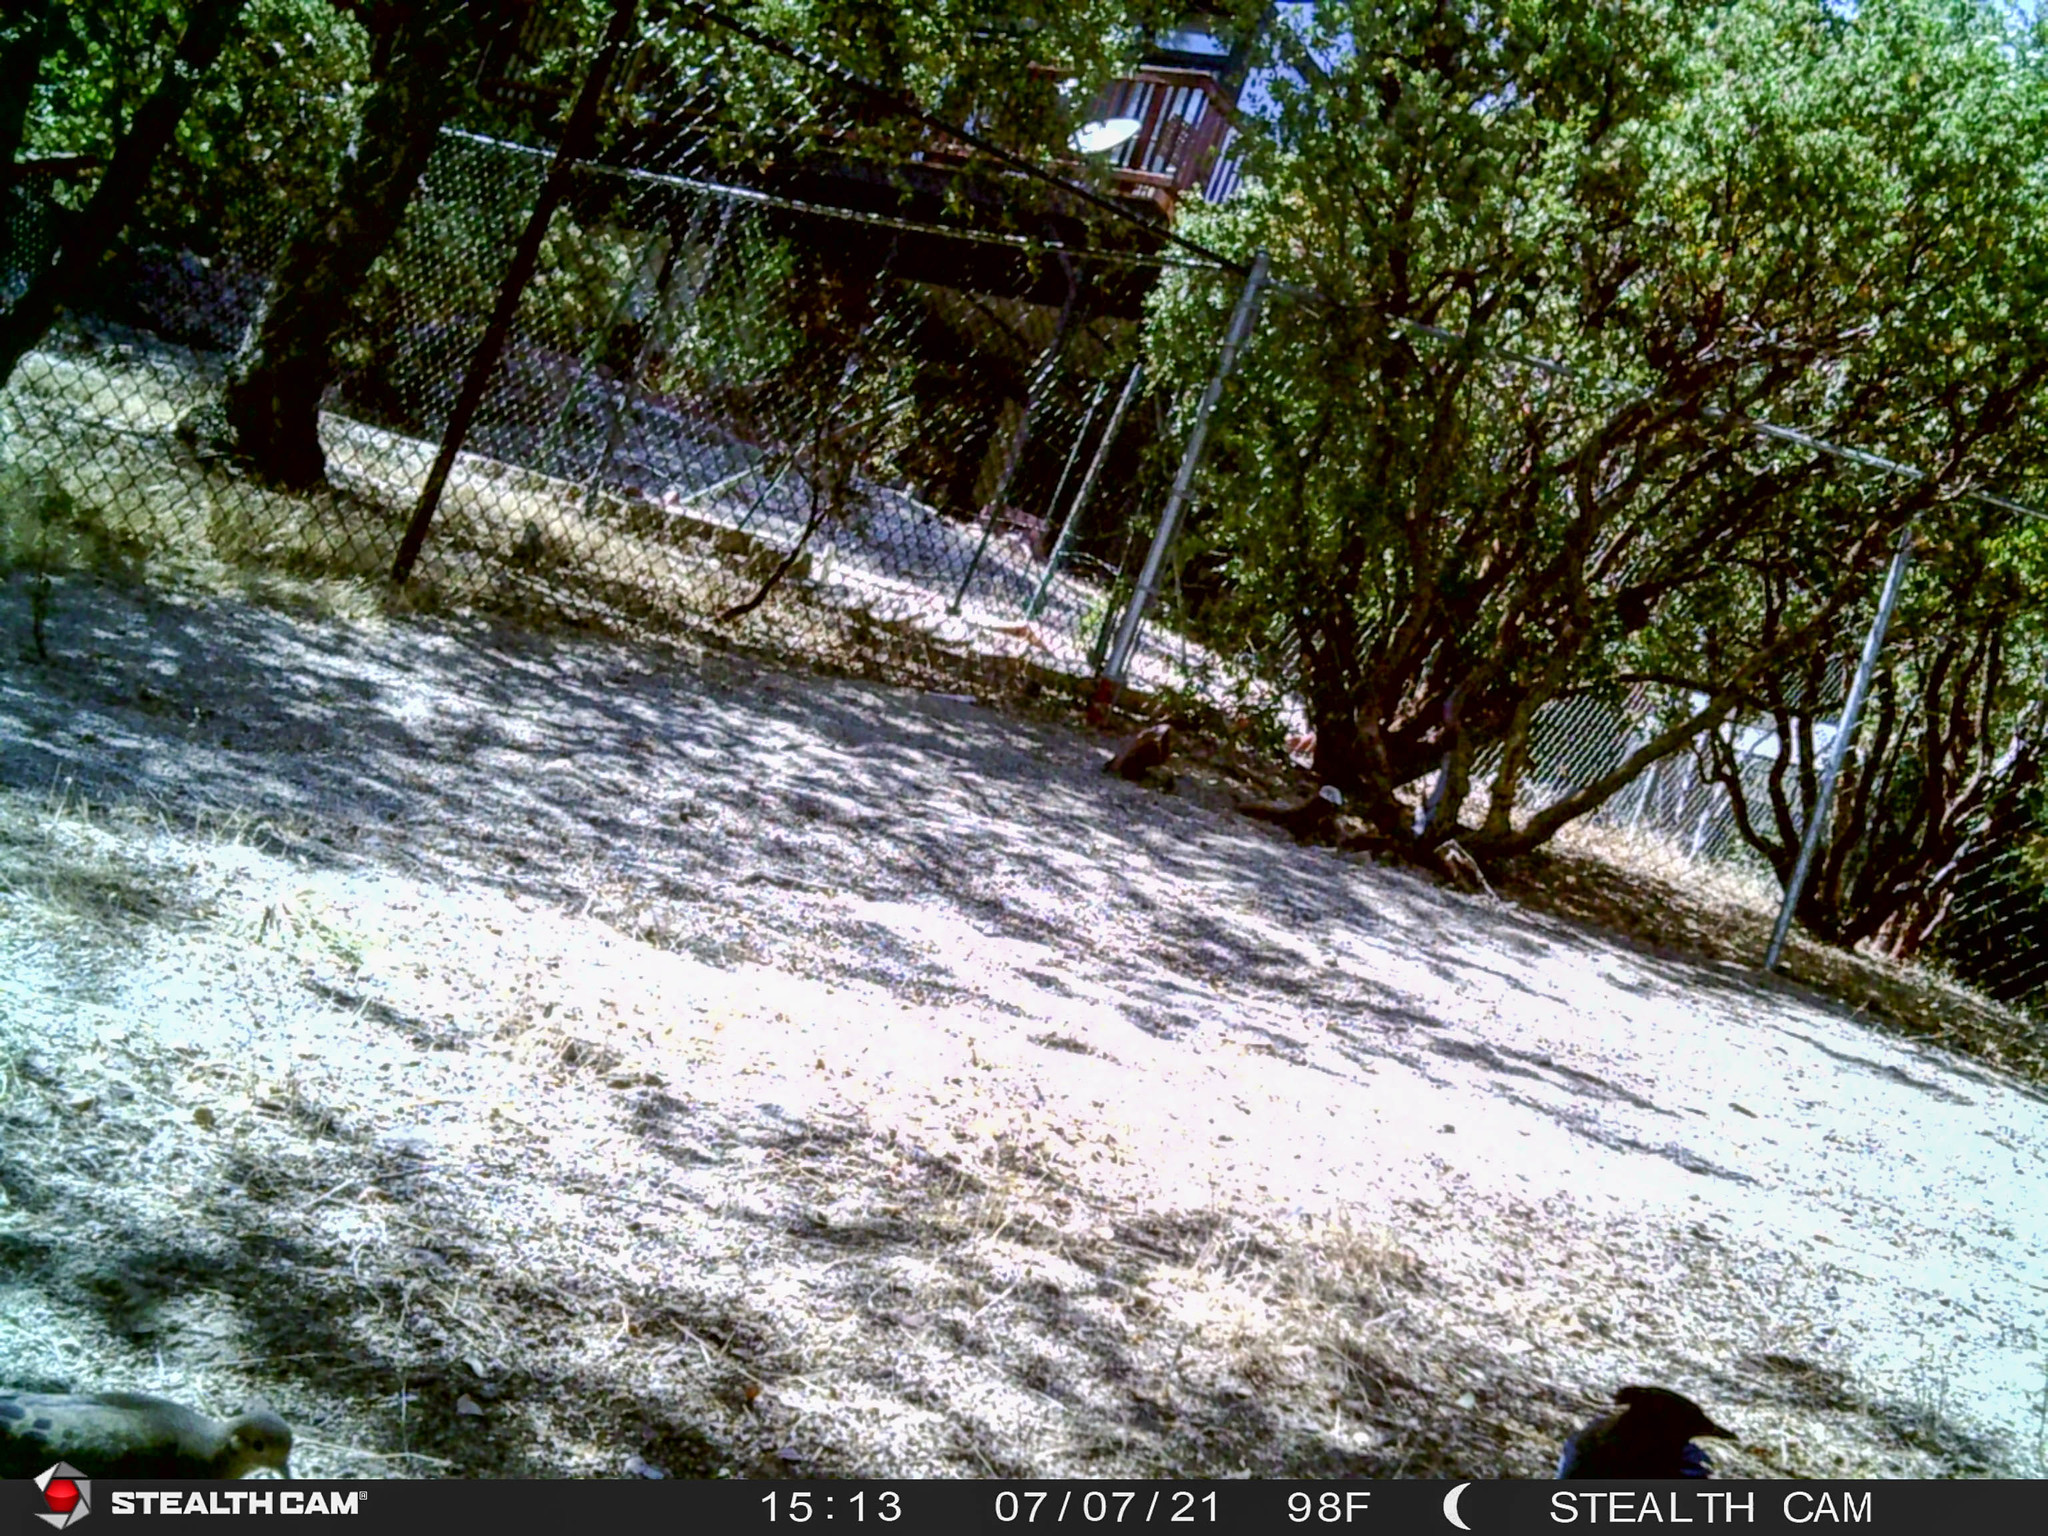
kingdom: Animalia
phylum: Chordata
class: Aves
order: Columbiformes
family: Columbidae
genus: Zenaida
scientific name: Zenaida macroura
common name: Mourning dove
